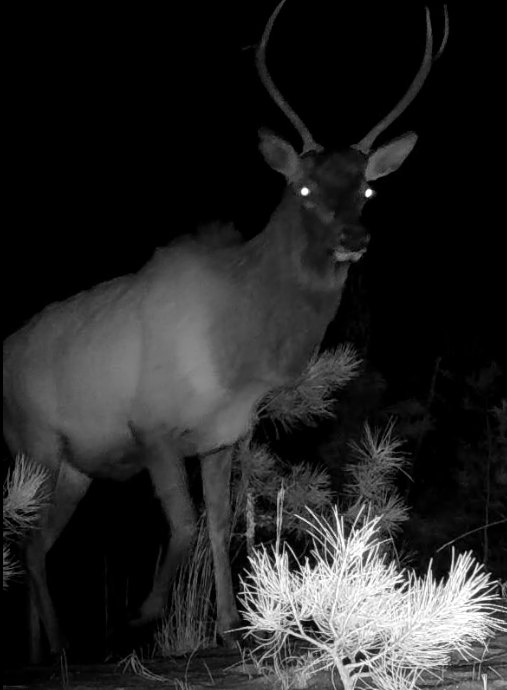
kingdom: Animalia
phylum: Chordata
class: Mammalia
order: Artiodactyla
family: Cervidae
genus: Cervus
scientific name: Cervus elaphus
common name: Red deer
